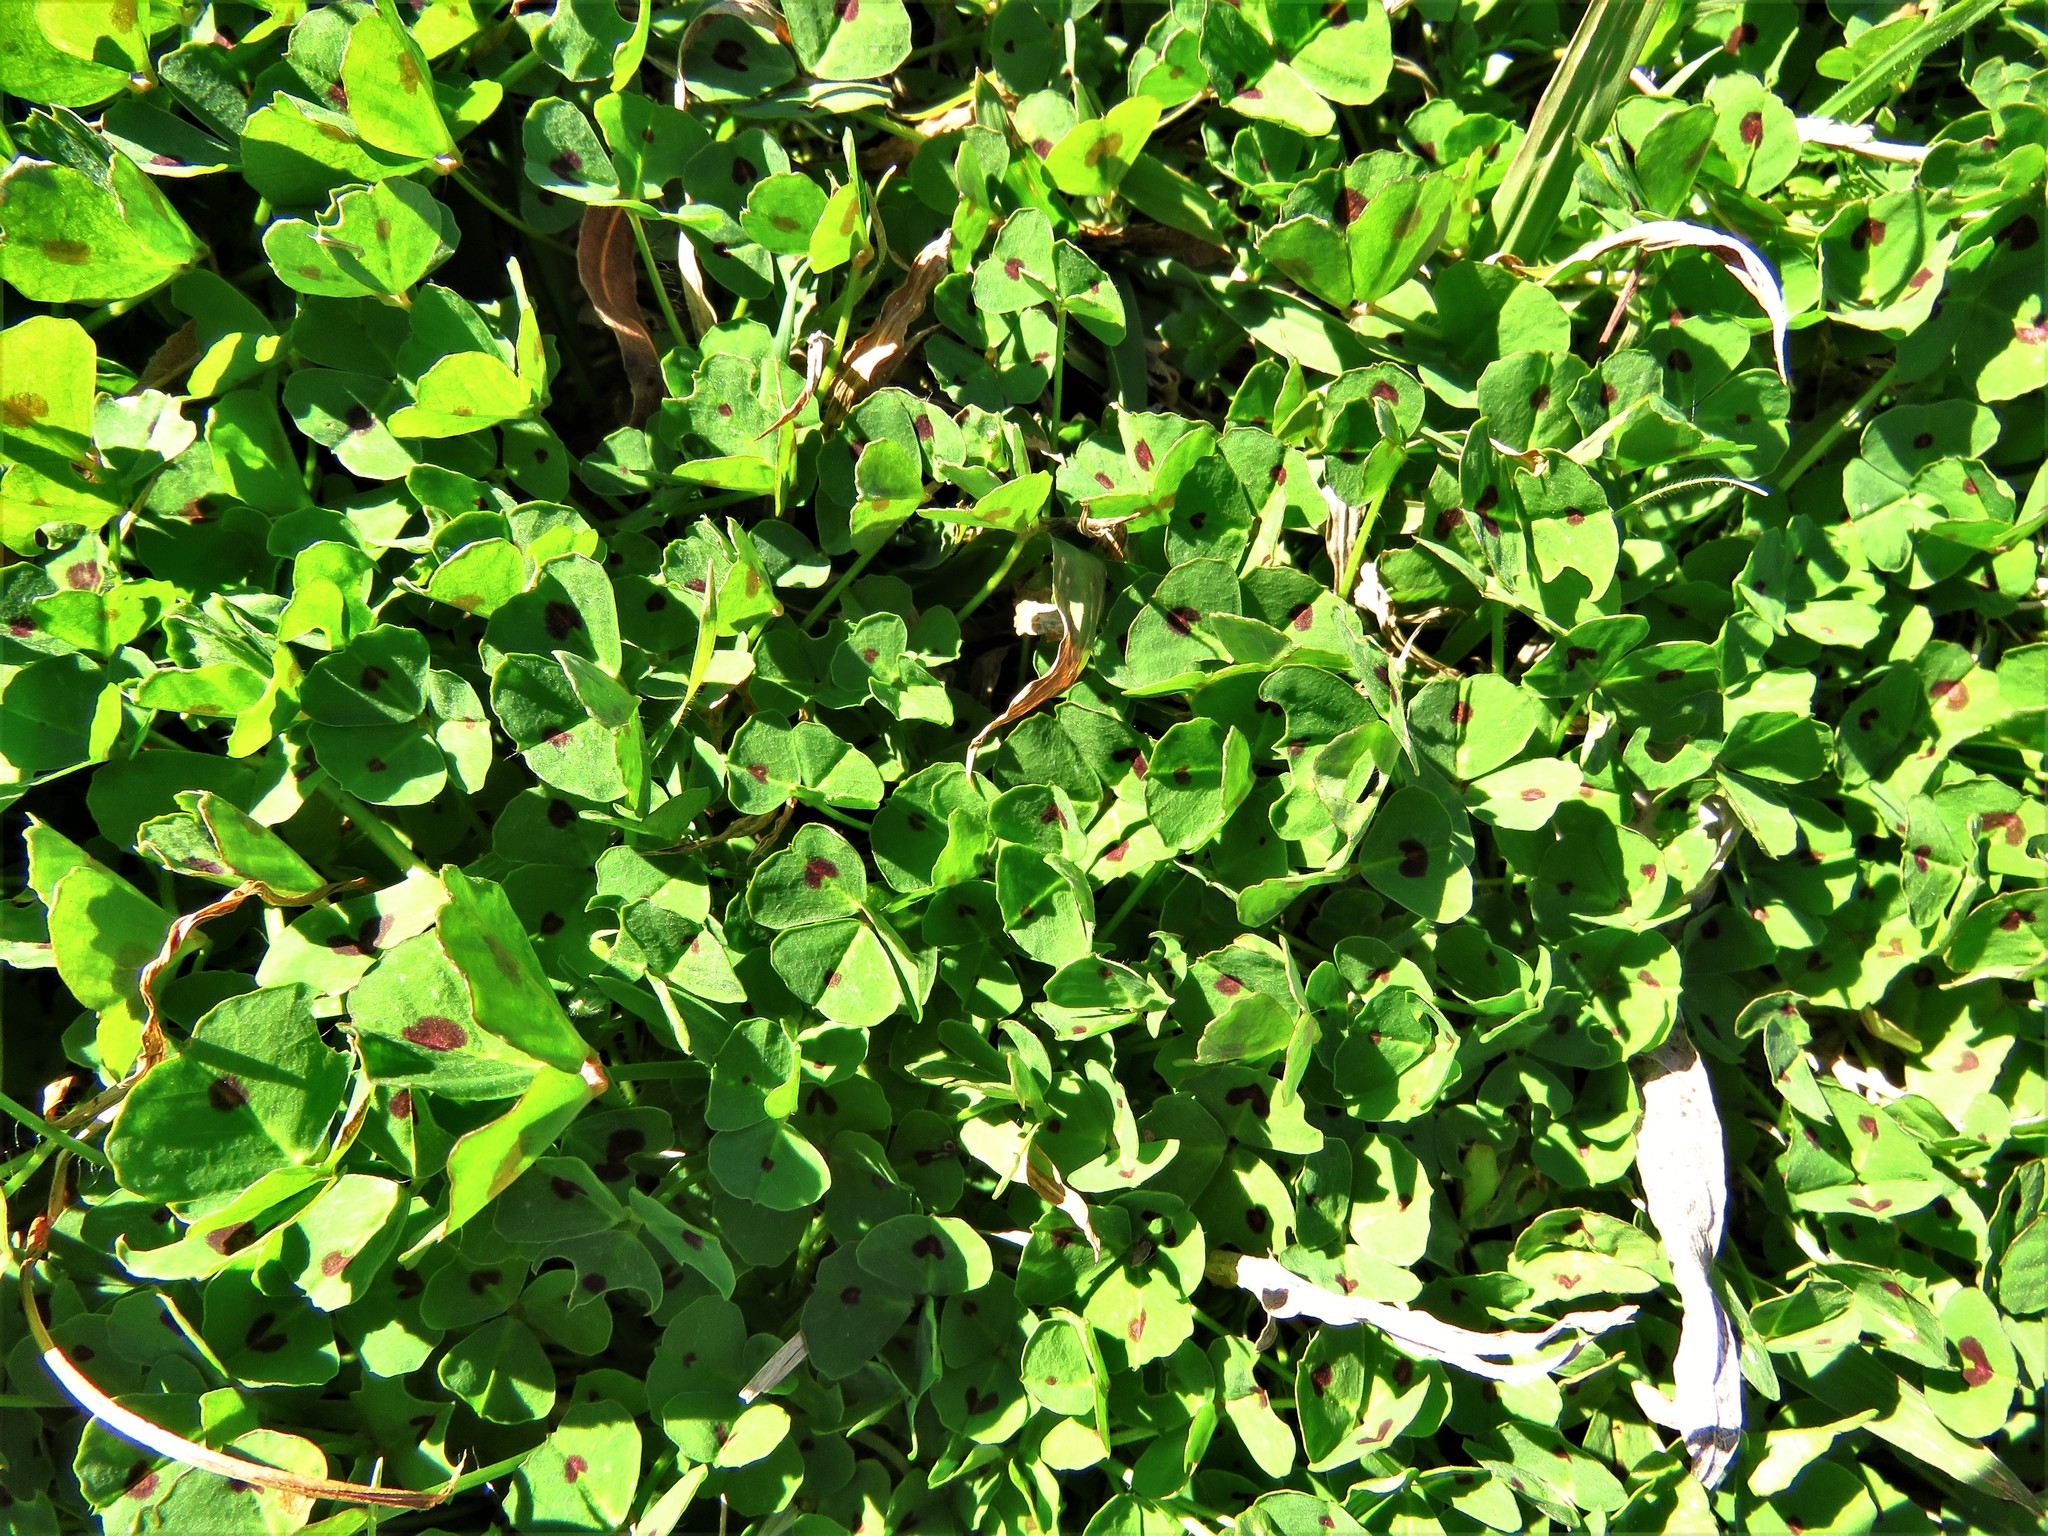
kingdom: Plantae
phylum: Tracheophyta
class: Magnoliopsida
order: Fabales
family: Fabaceae
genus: Medicago
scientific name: Medicago arabica
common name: Spotted medick
